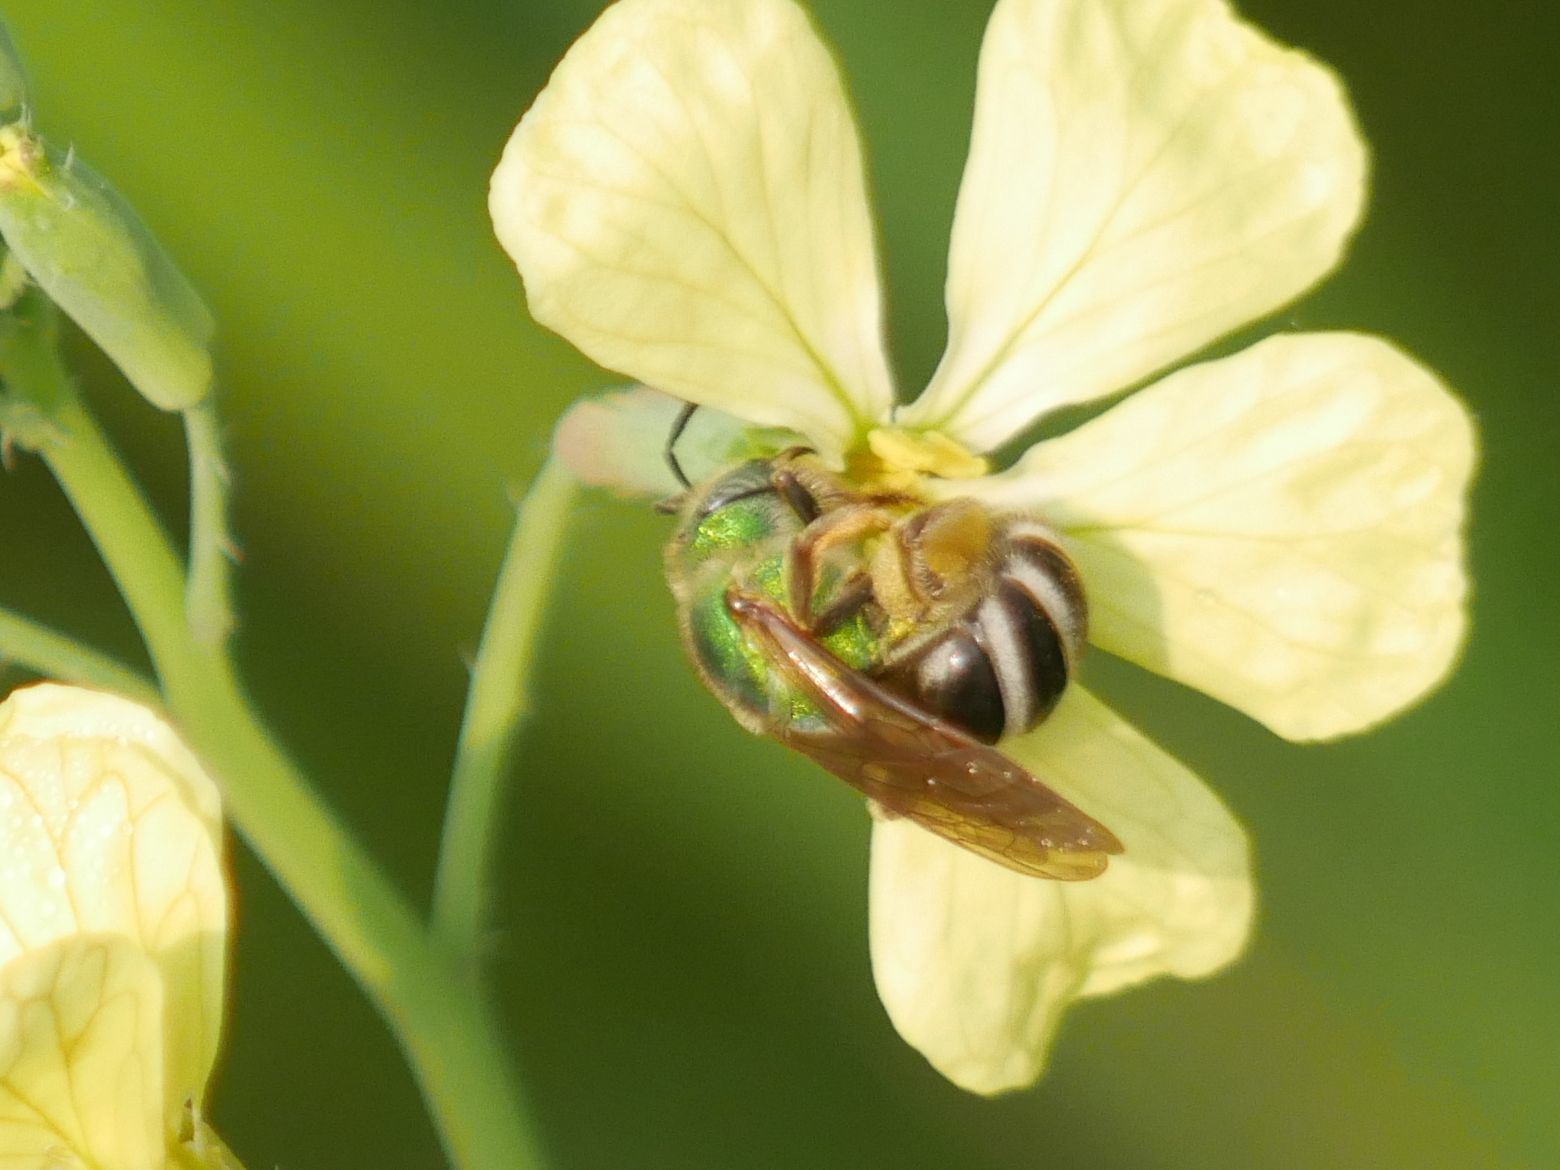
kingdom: Animalia
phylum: Arthropoda
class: Insecta
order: Hymenoptera
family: Halictidae
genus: Agapostemon
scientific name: Agapostemon virescens
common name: Bicolored striped sweat bee
